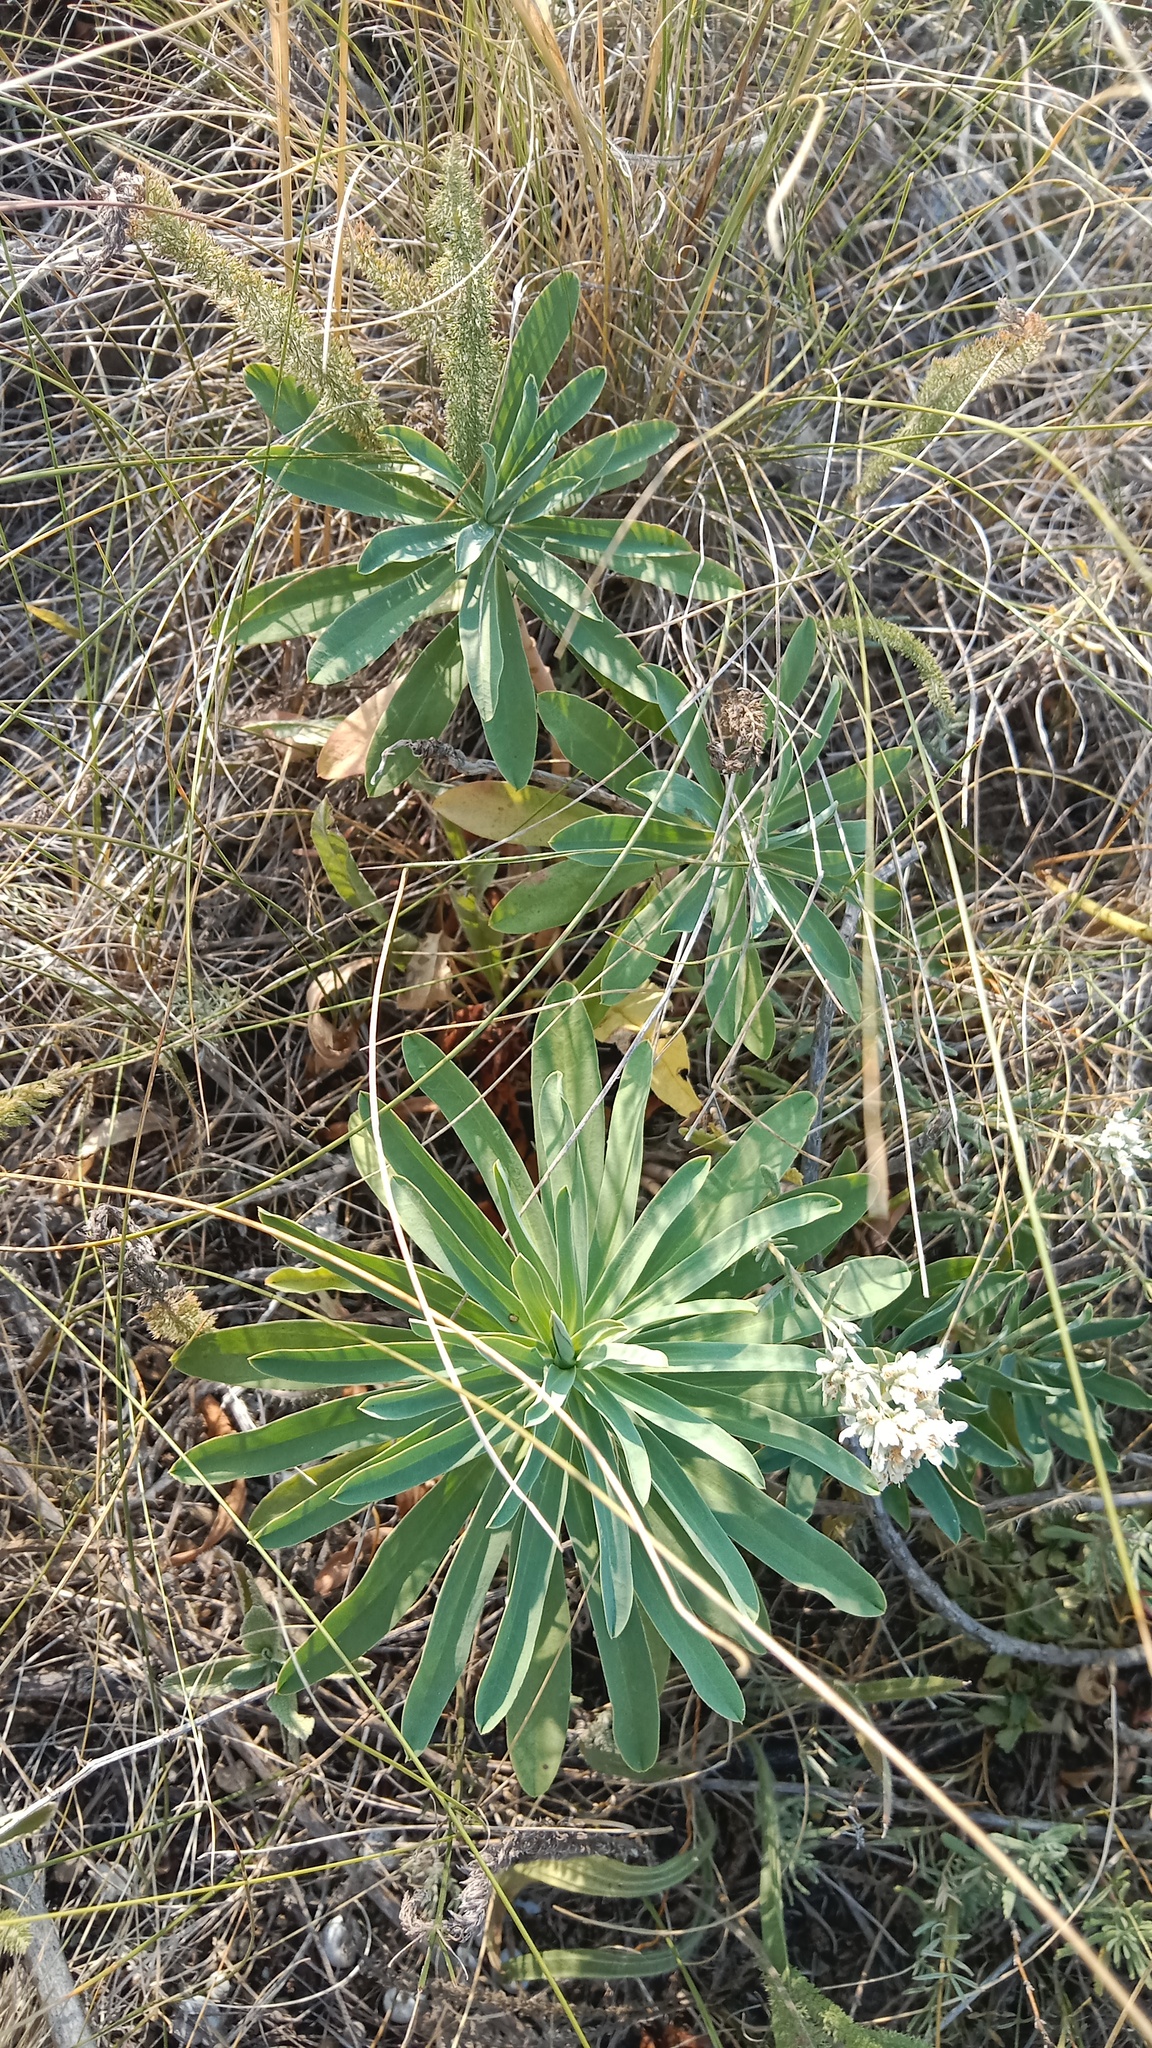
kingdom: Plantae
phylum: Tracheophyta
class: Magnoliopsida
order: Malpighiales
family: Euphorbiaceae
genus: Euphorbia
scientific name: Euphorbia stepposa
